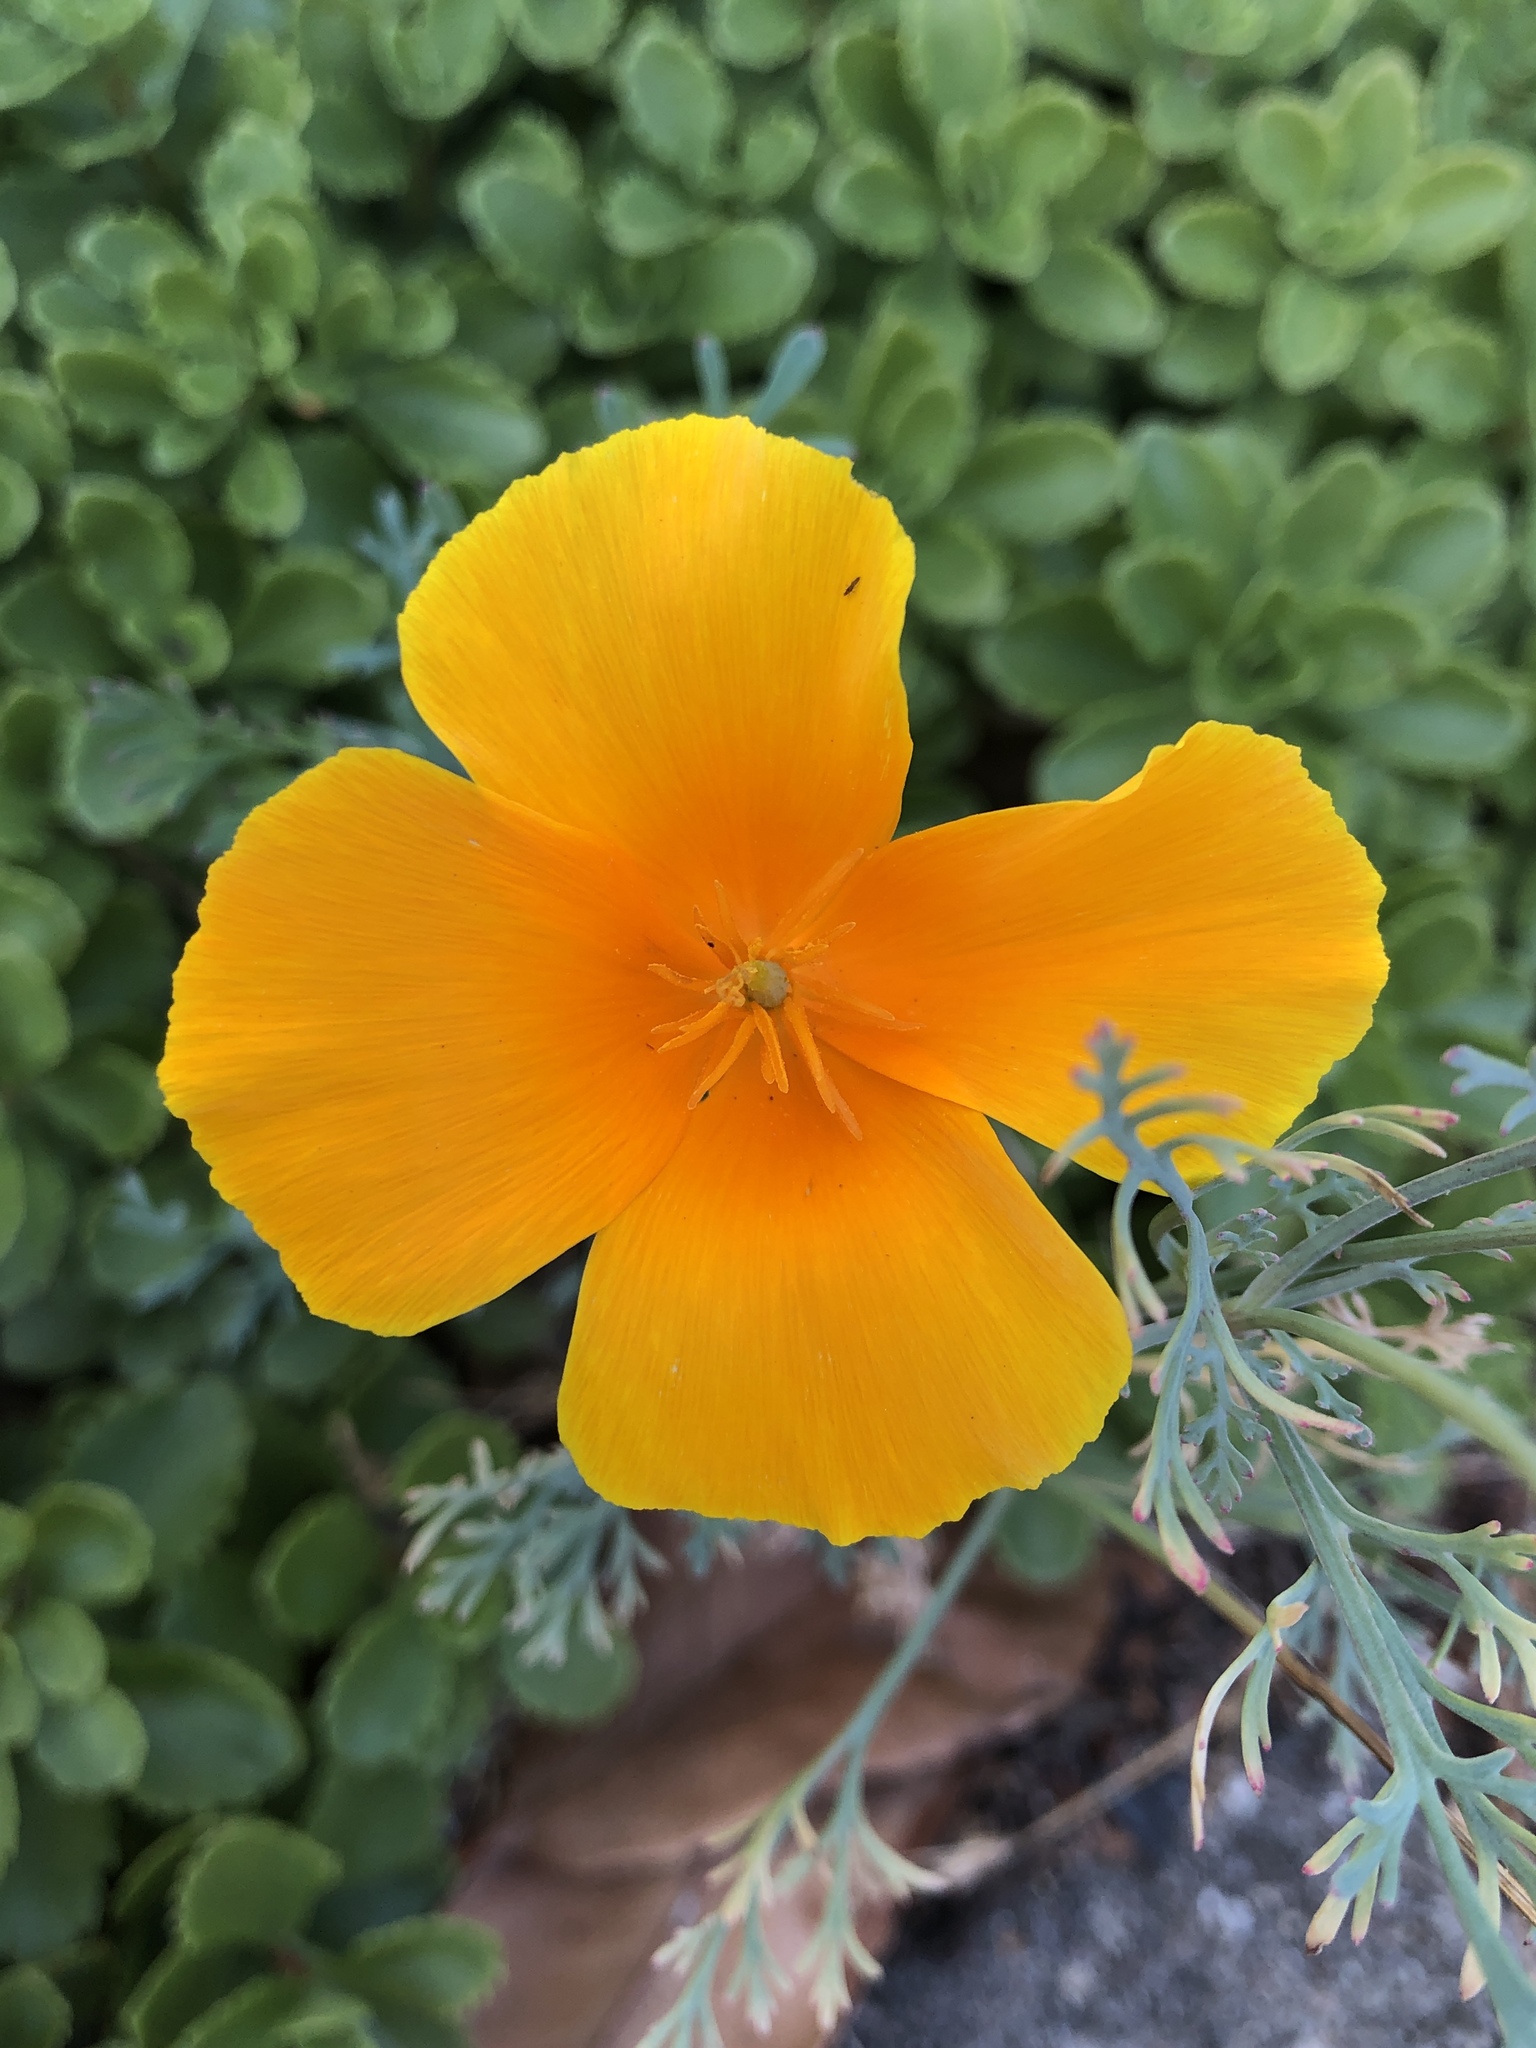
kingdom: Plantae
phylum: Tracheophyta
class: Magnoliopsida
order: Ranunculales
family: Papaveraceae
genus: Eschscholzia
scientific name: Eschscholzia californica
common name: California poppy
